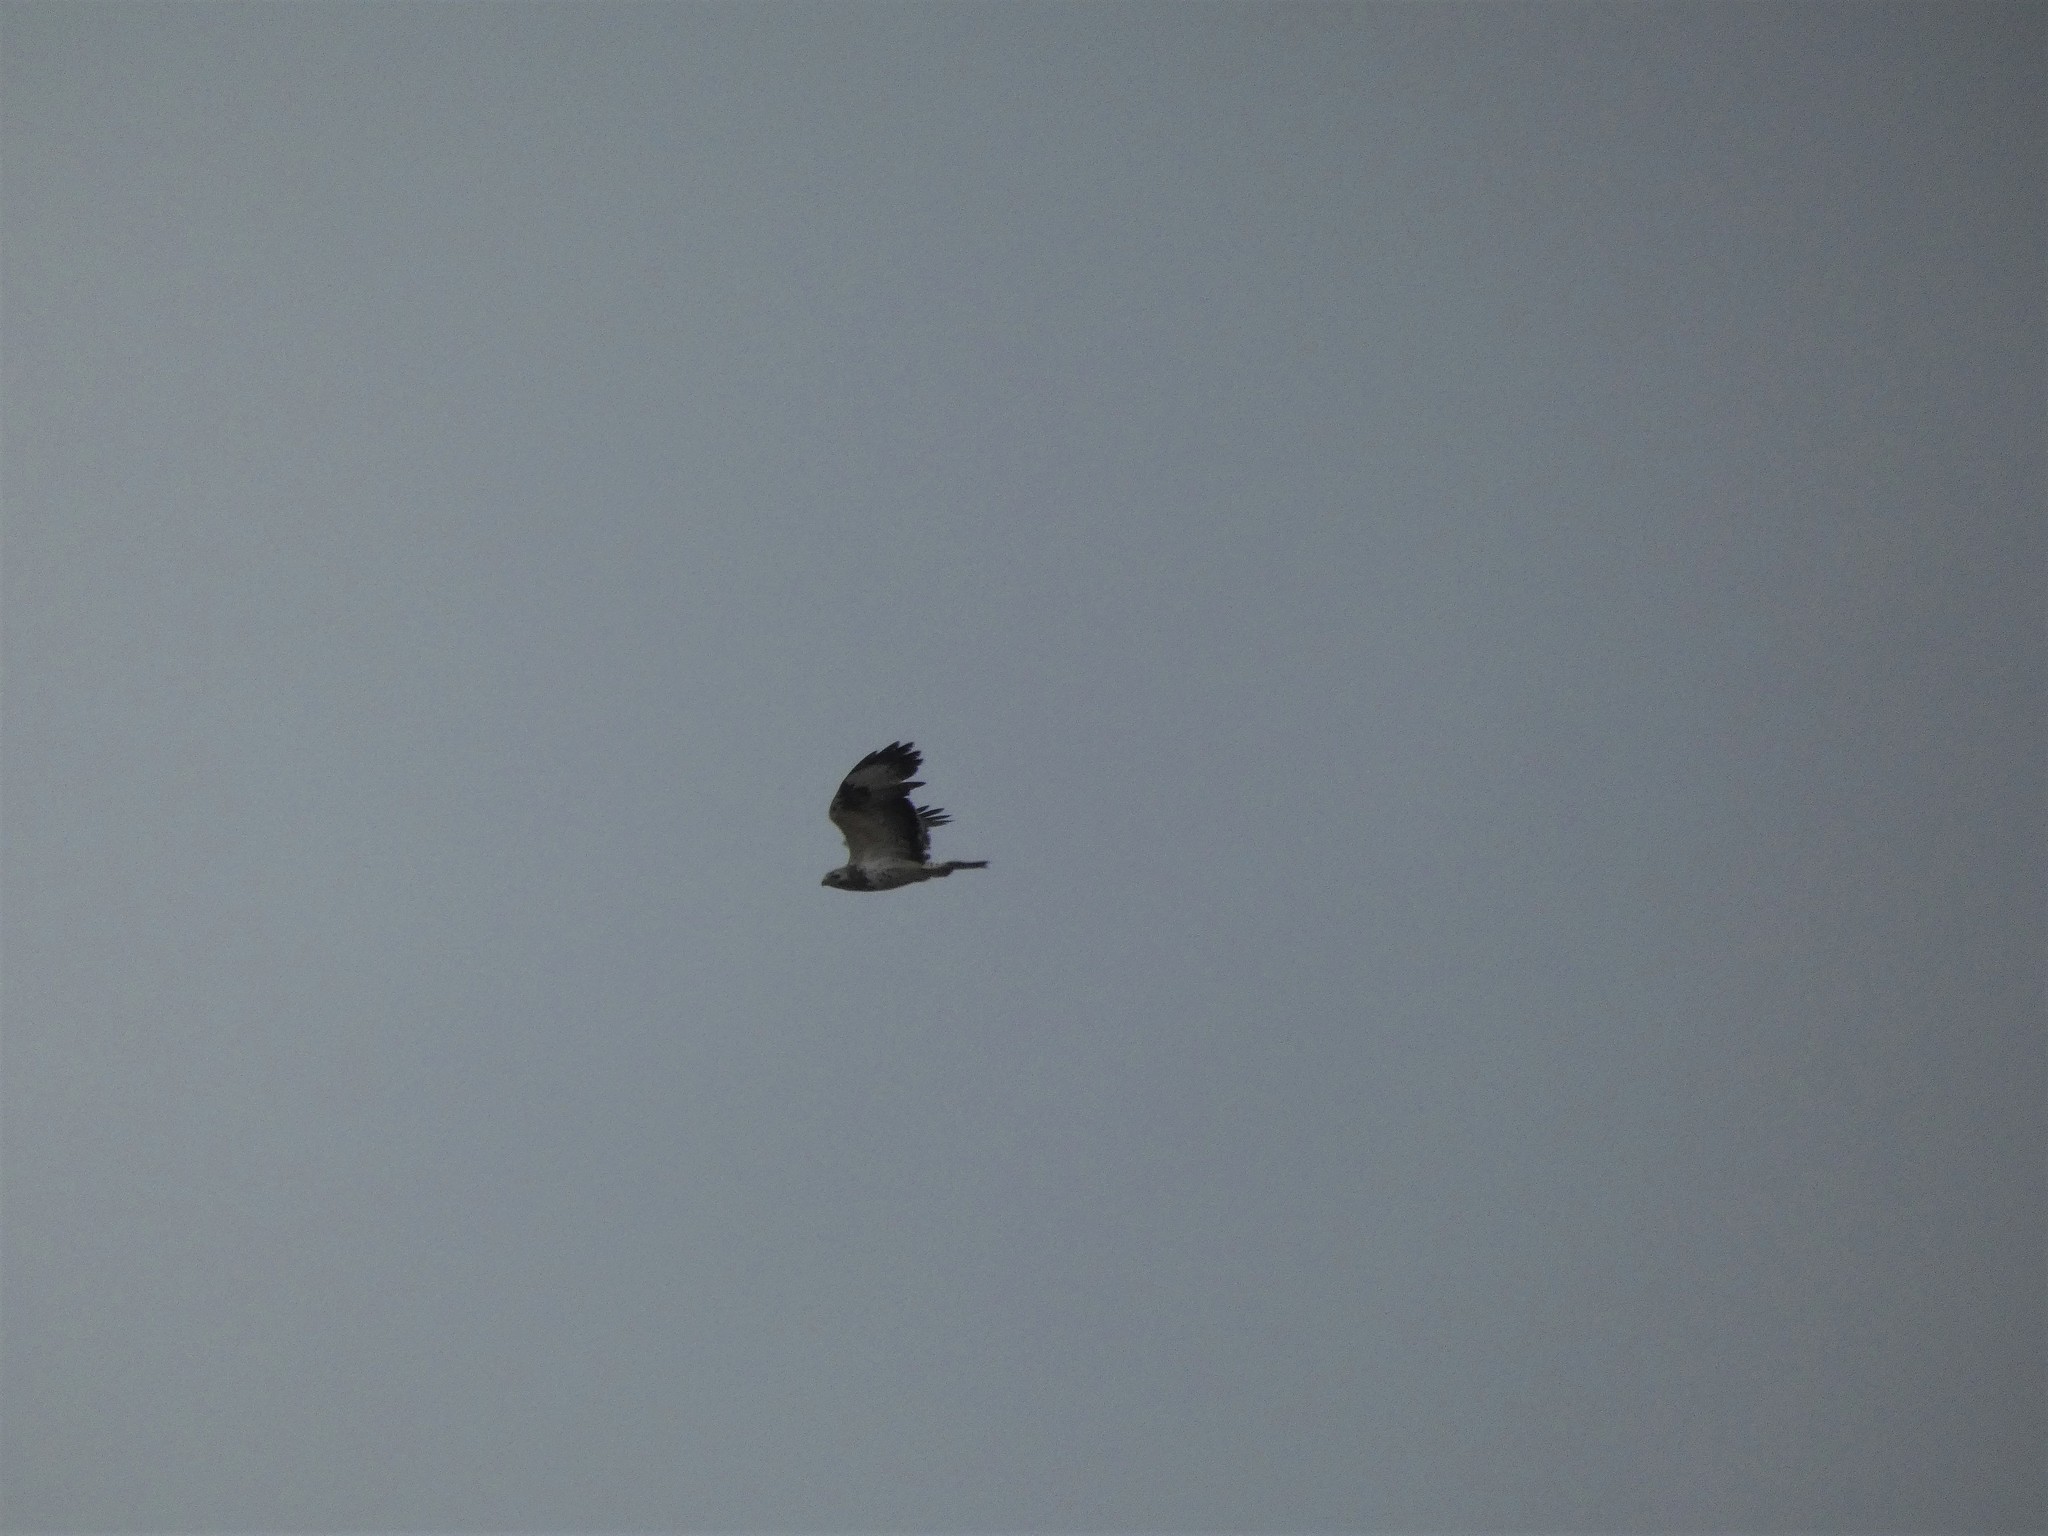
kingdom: Animalia
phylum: Chordata
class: Aves
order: Accipitriformes
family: Accipitridae
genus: Buteo
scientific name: Buteo buteo
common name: Common buzzard
